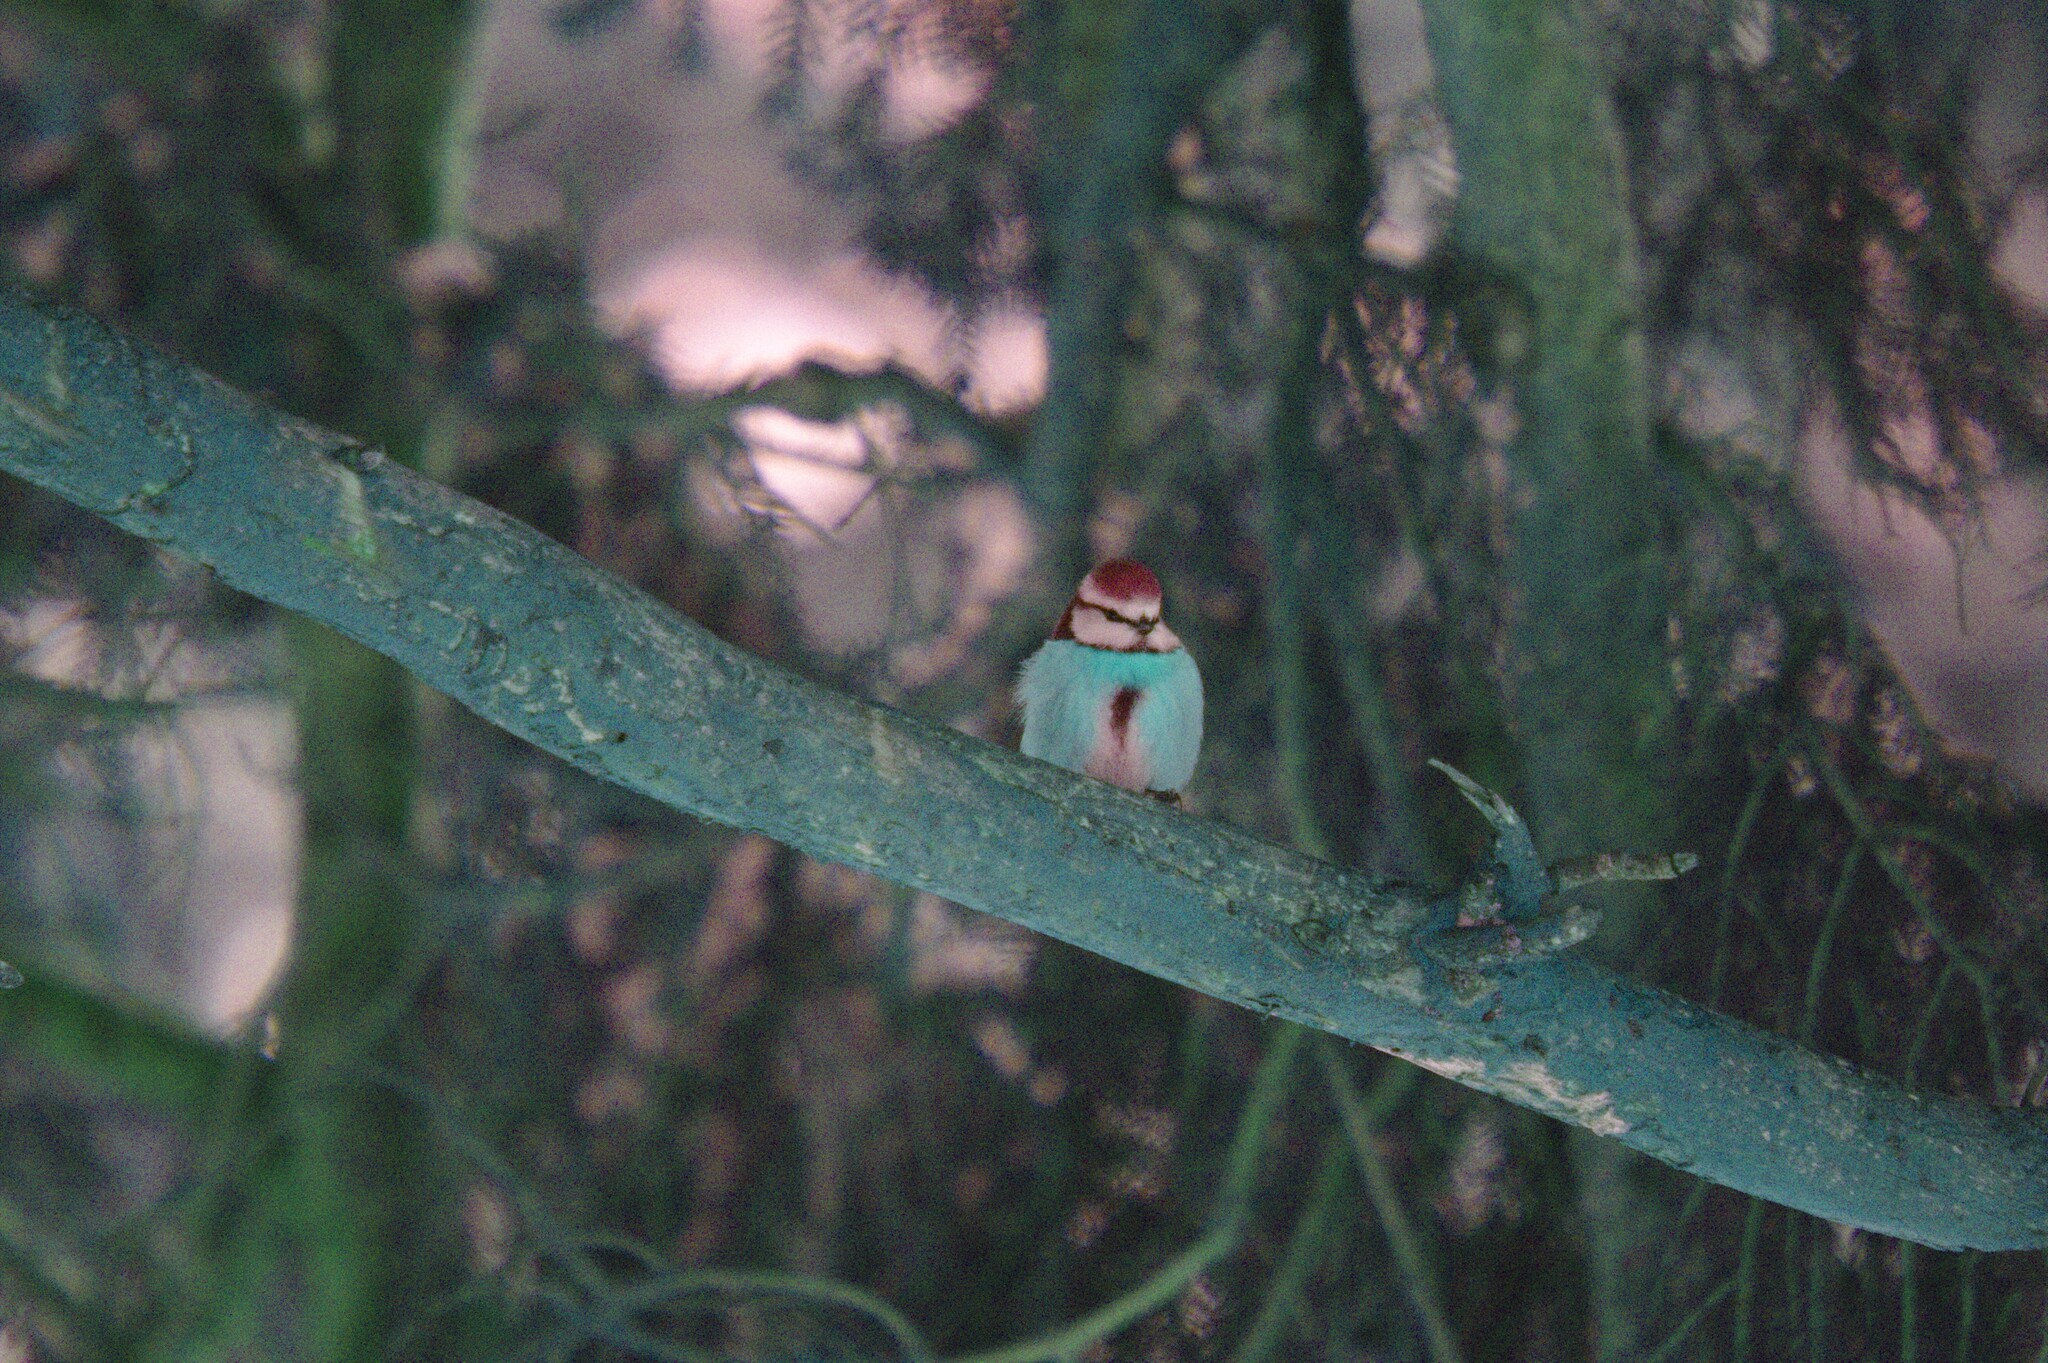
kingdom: Animalia
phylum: Chordata
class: Aves
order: Passeriformes
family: Paridae
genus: Cyanistes
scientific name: Cyanistes caeruleus
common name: Eurasian blue tit
